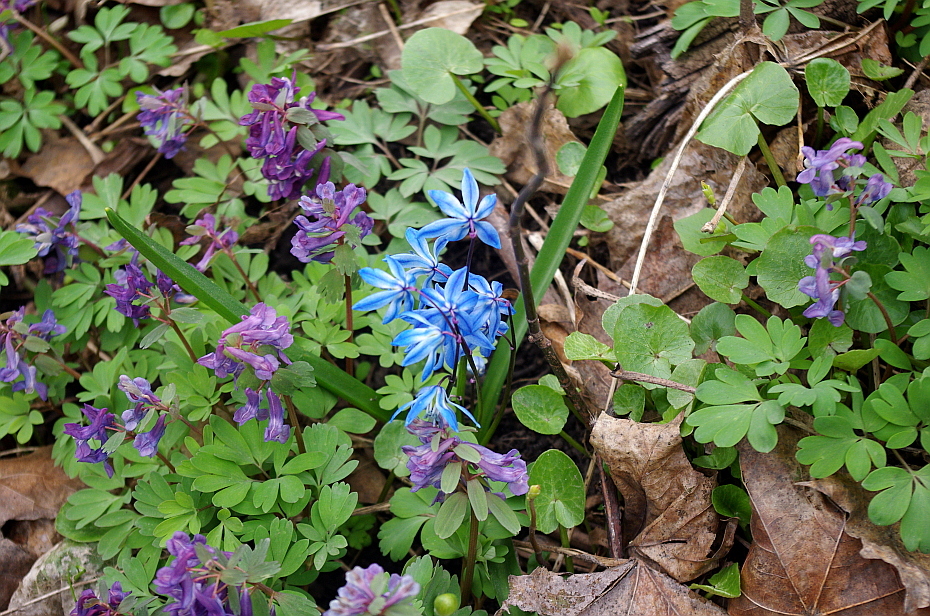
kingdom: Plantae
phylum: Tracheophyta
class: Liliopsida
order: Asparagales
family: Asparagaceae
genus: Scilla
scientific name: Scilla siberica
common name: Siberian squill
